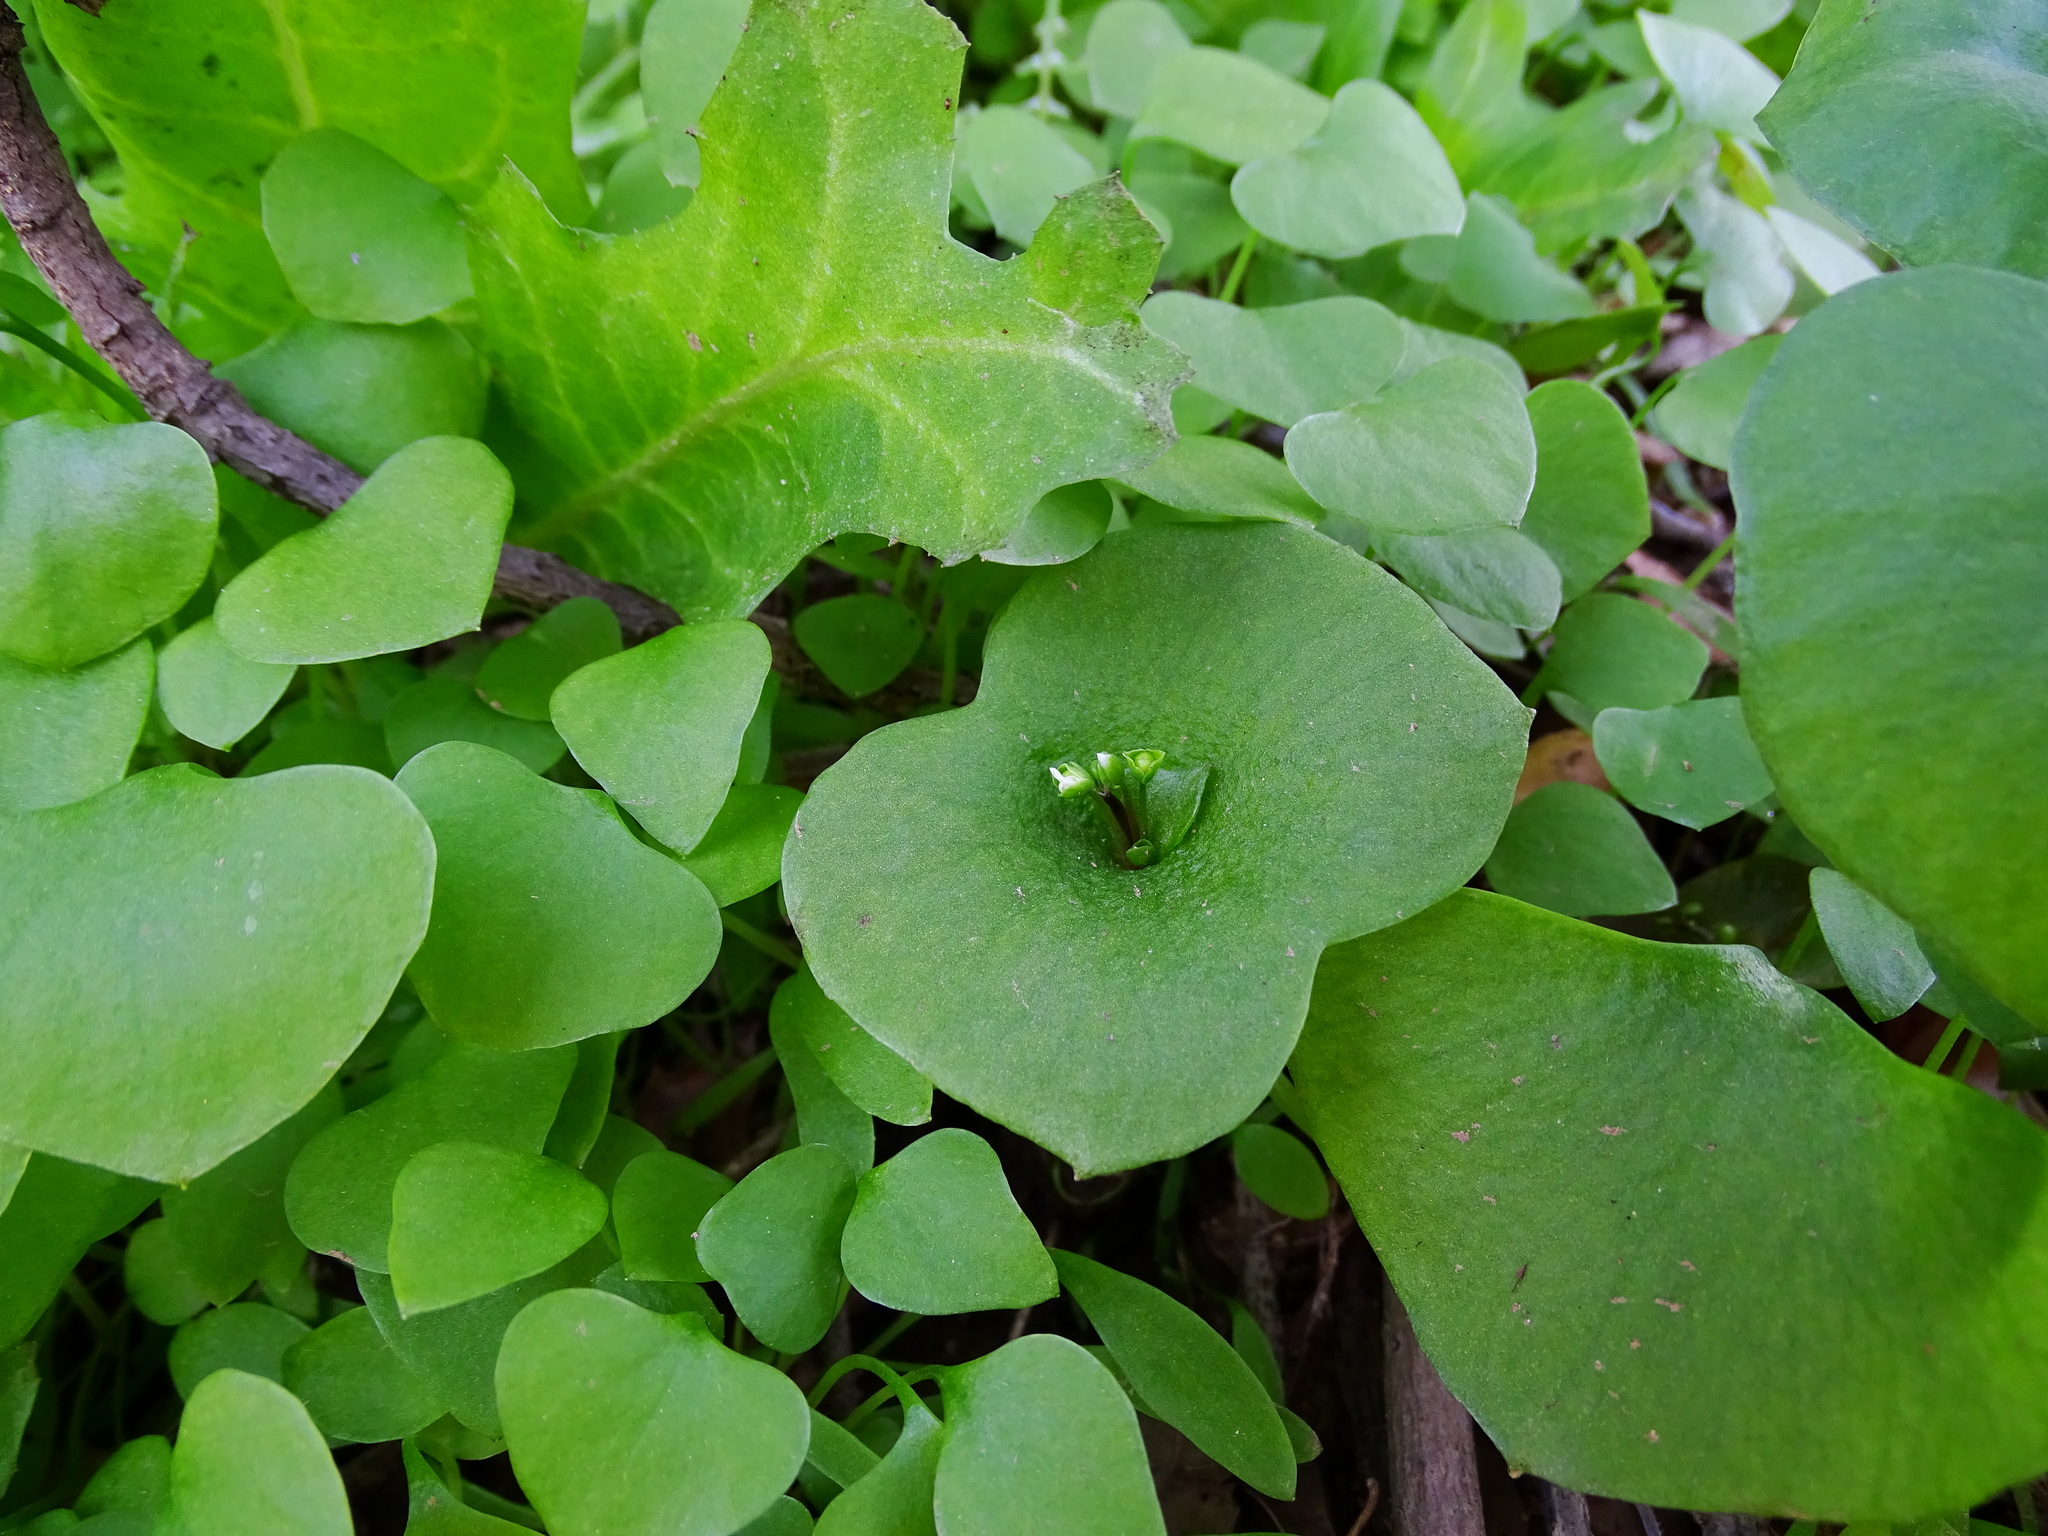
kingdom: Plantae
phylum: Tracheophyta
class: Magnoliopsida
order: Caryophyllales
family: Montiaceae
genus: Claytonia
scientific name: Claytonia perfoliata
